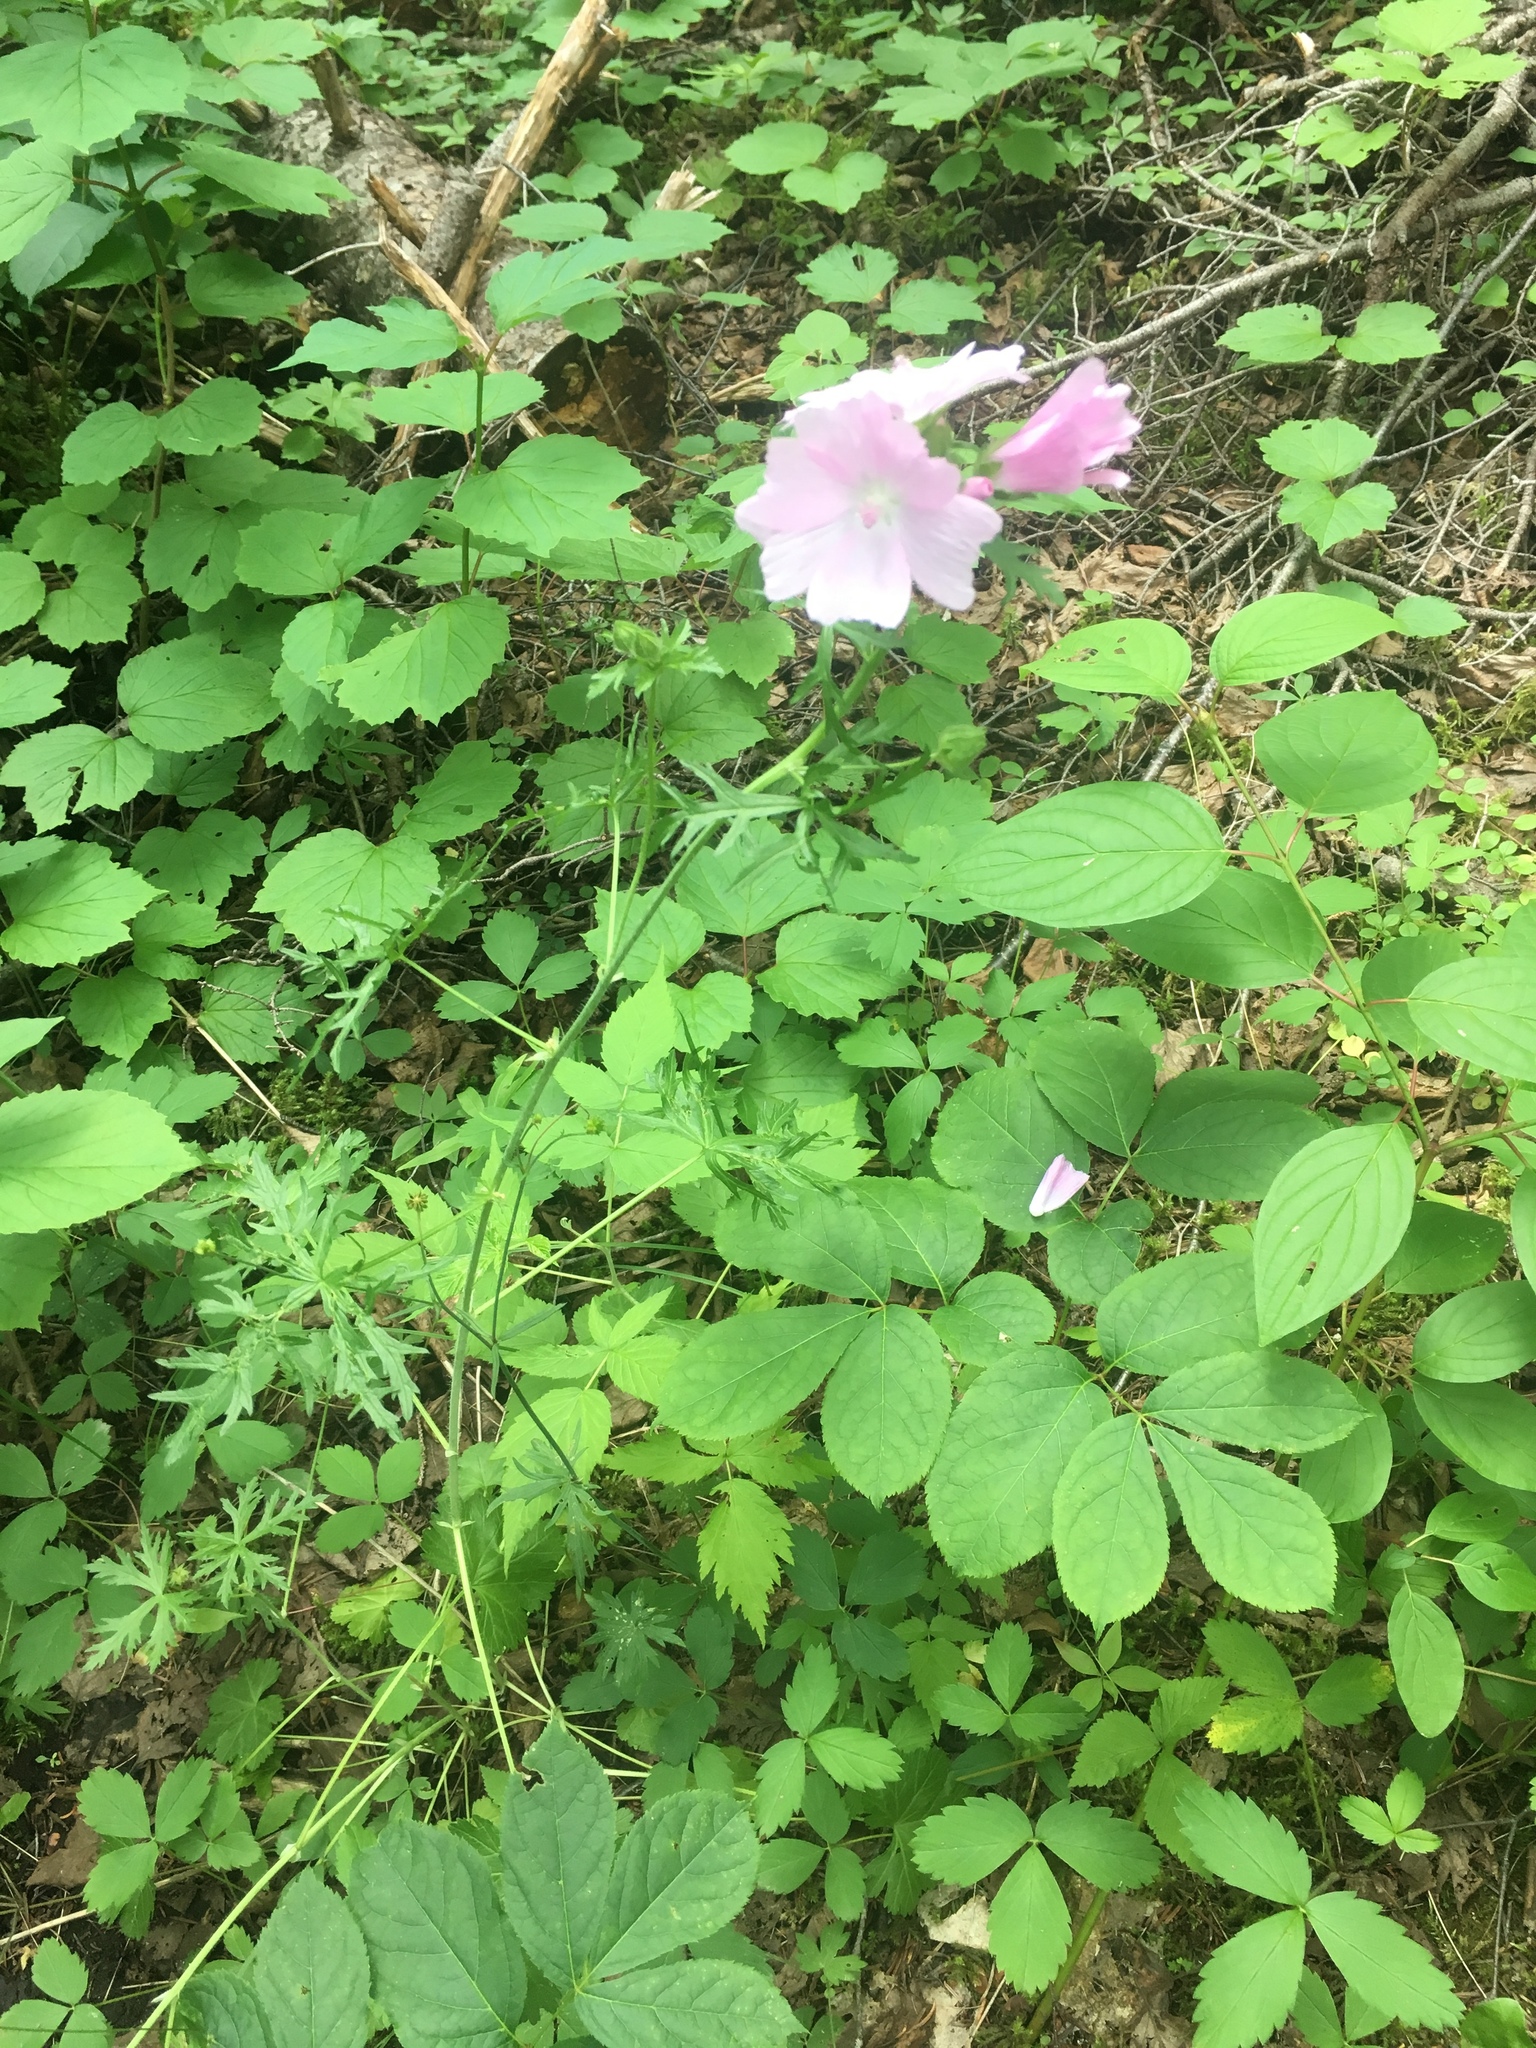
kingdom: Plantae
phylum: Tracheophyta
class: Magnoliopsida
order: Malvales
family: Malvaceae
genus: Malva
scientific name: Malva moschata
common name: Musk mallow
